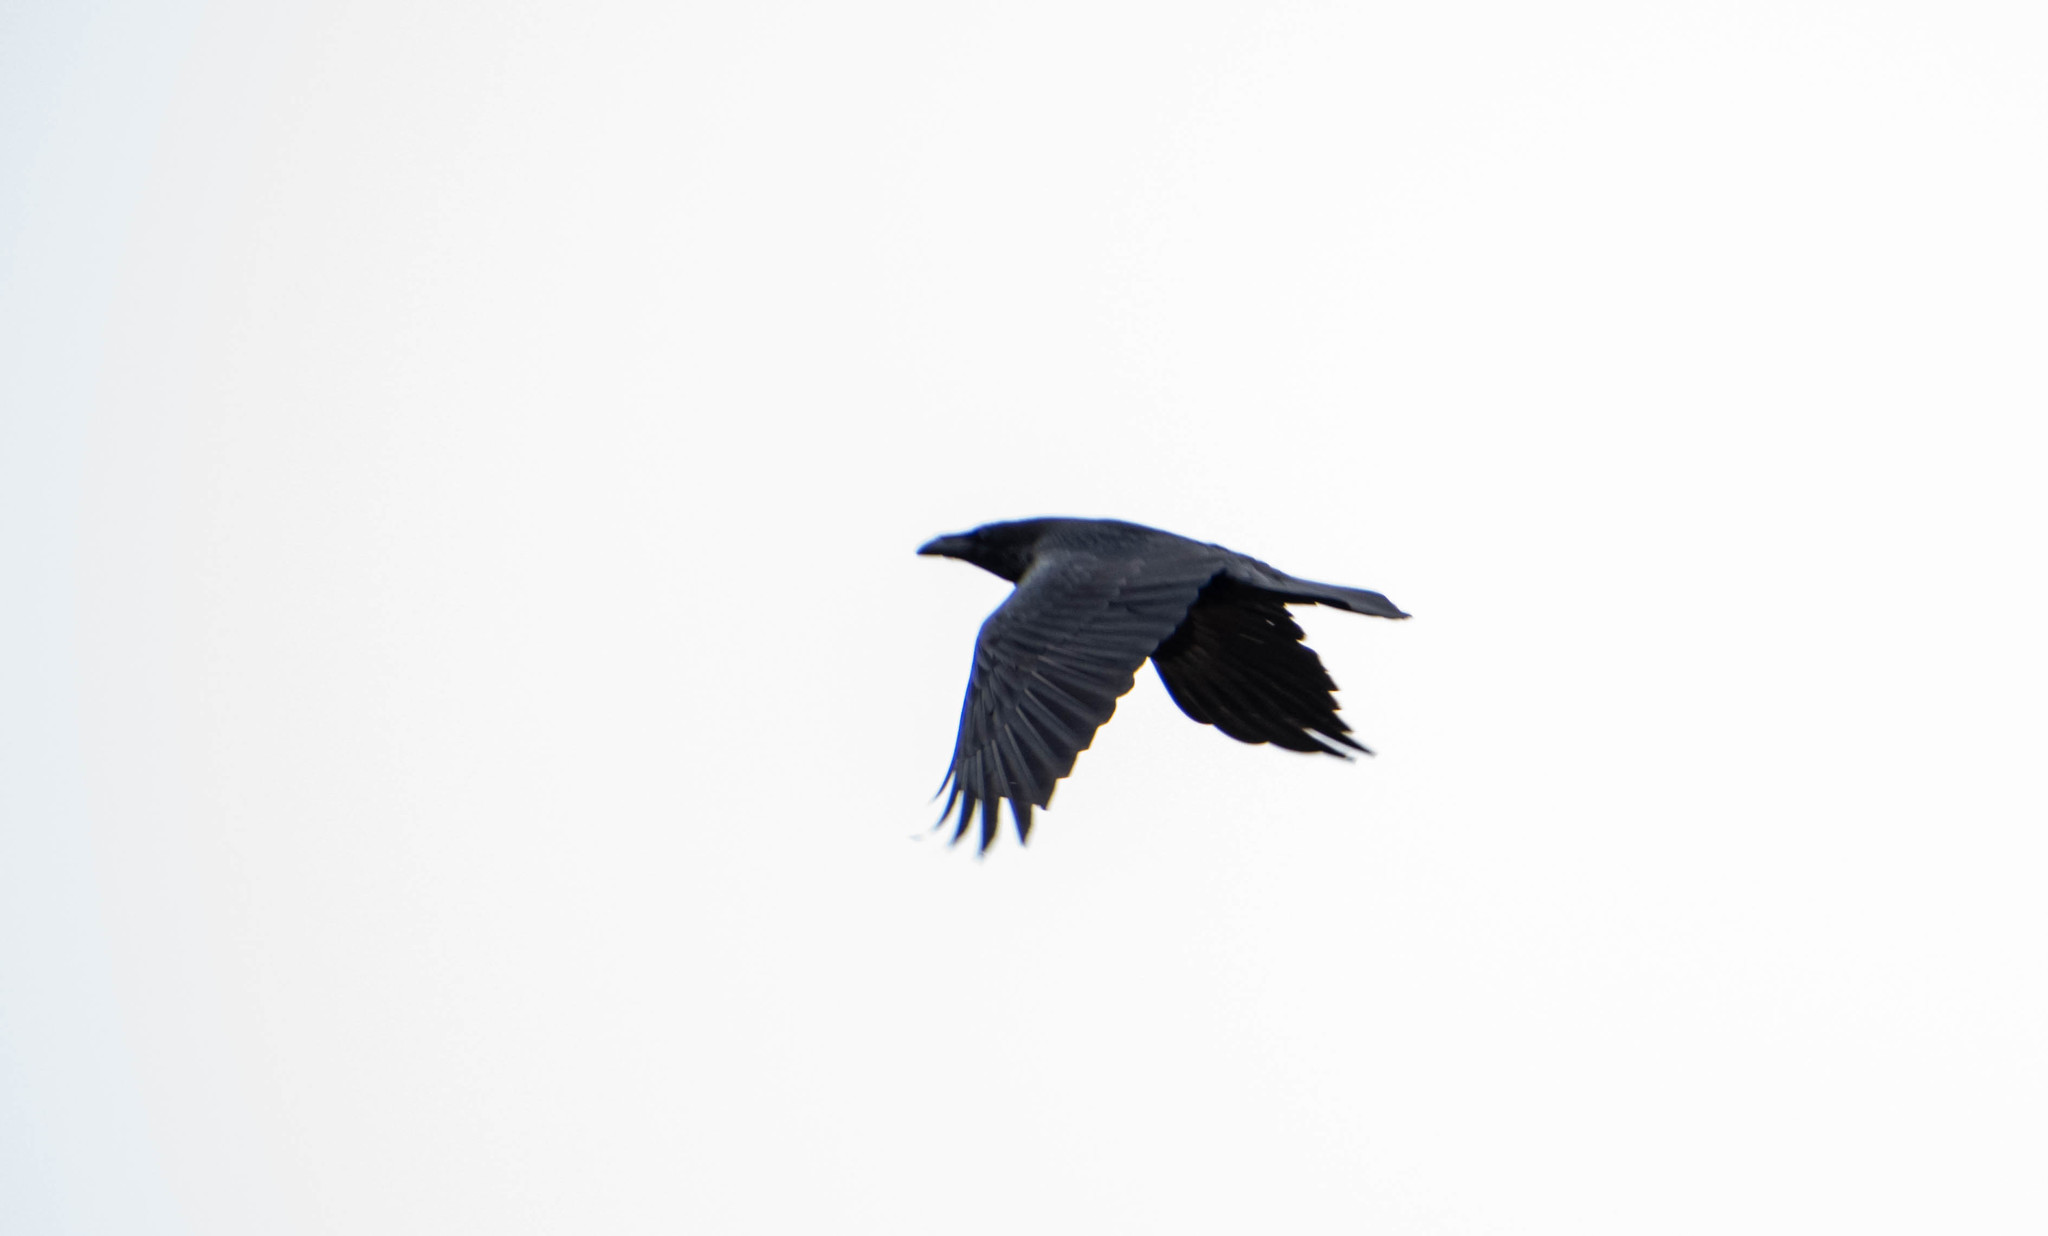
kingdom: Animalia
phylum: Chordata
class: Aves
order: Passeriformes
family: Corvidae
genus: Corvus
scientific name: Corvus corax
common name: Common raven
